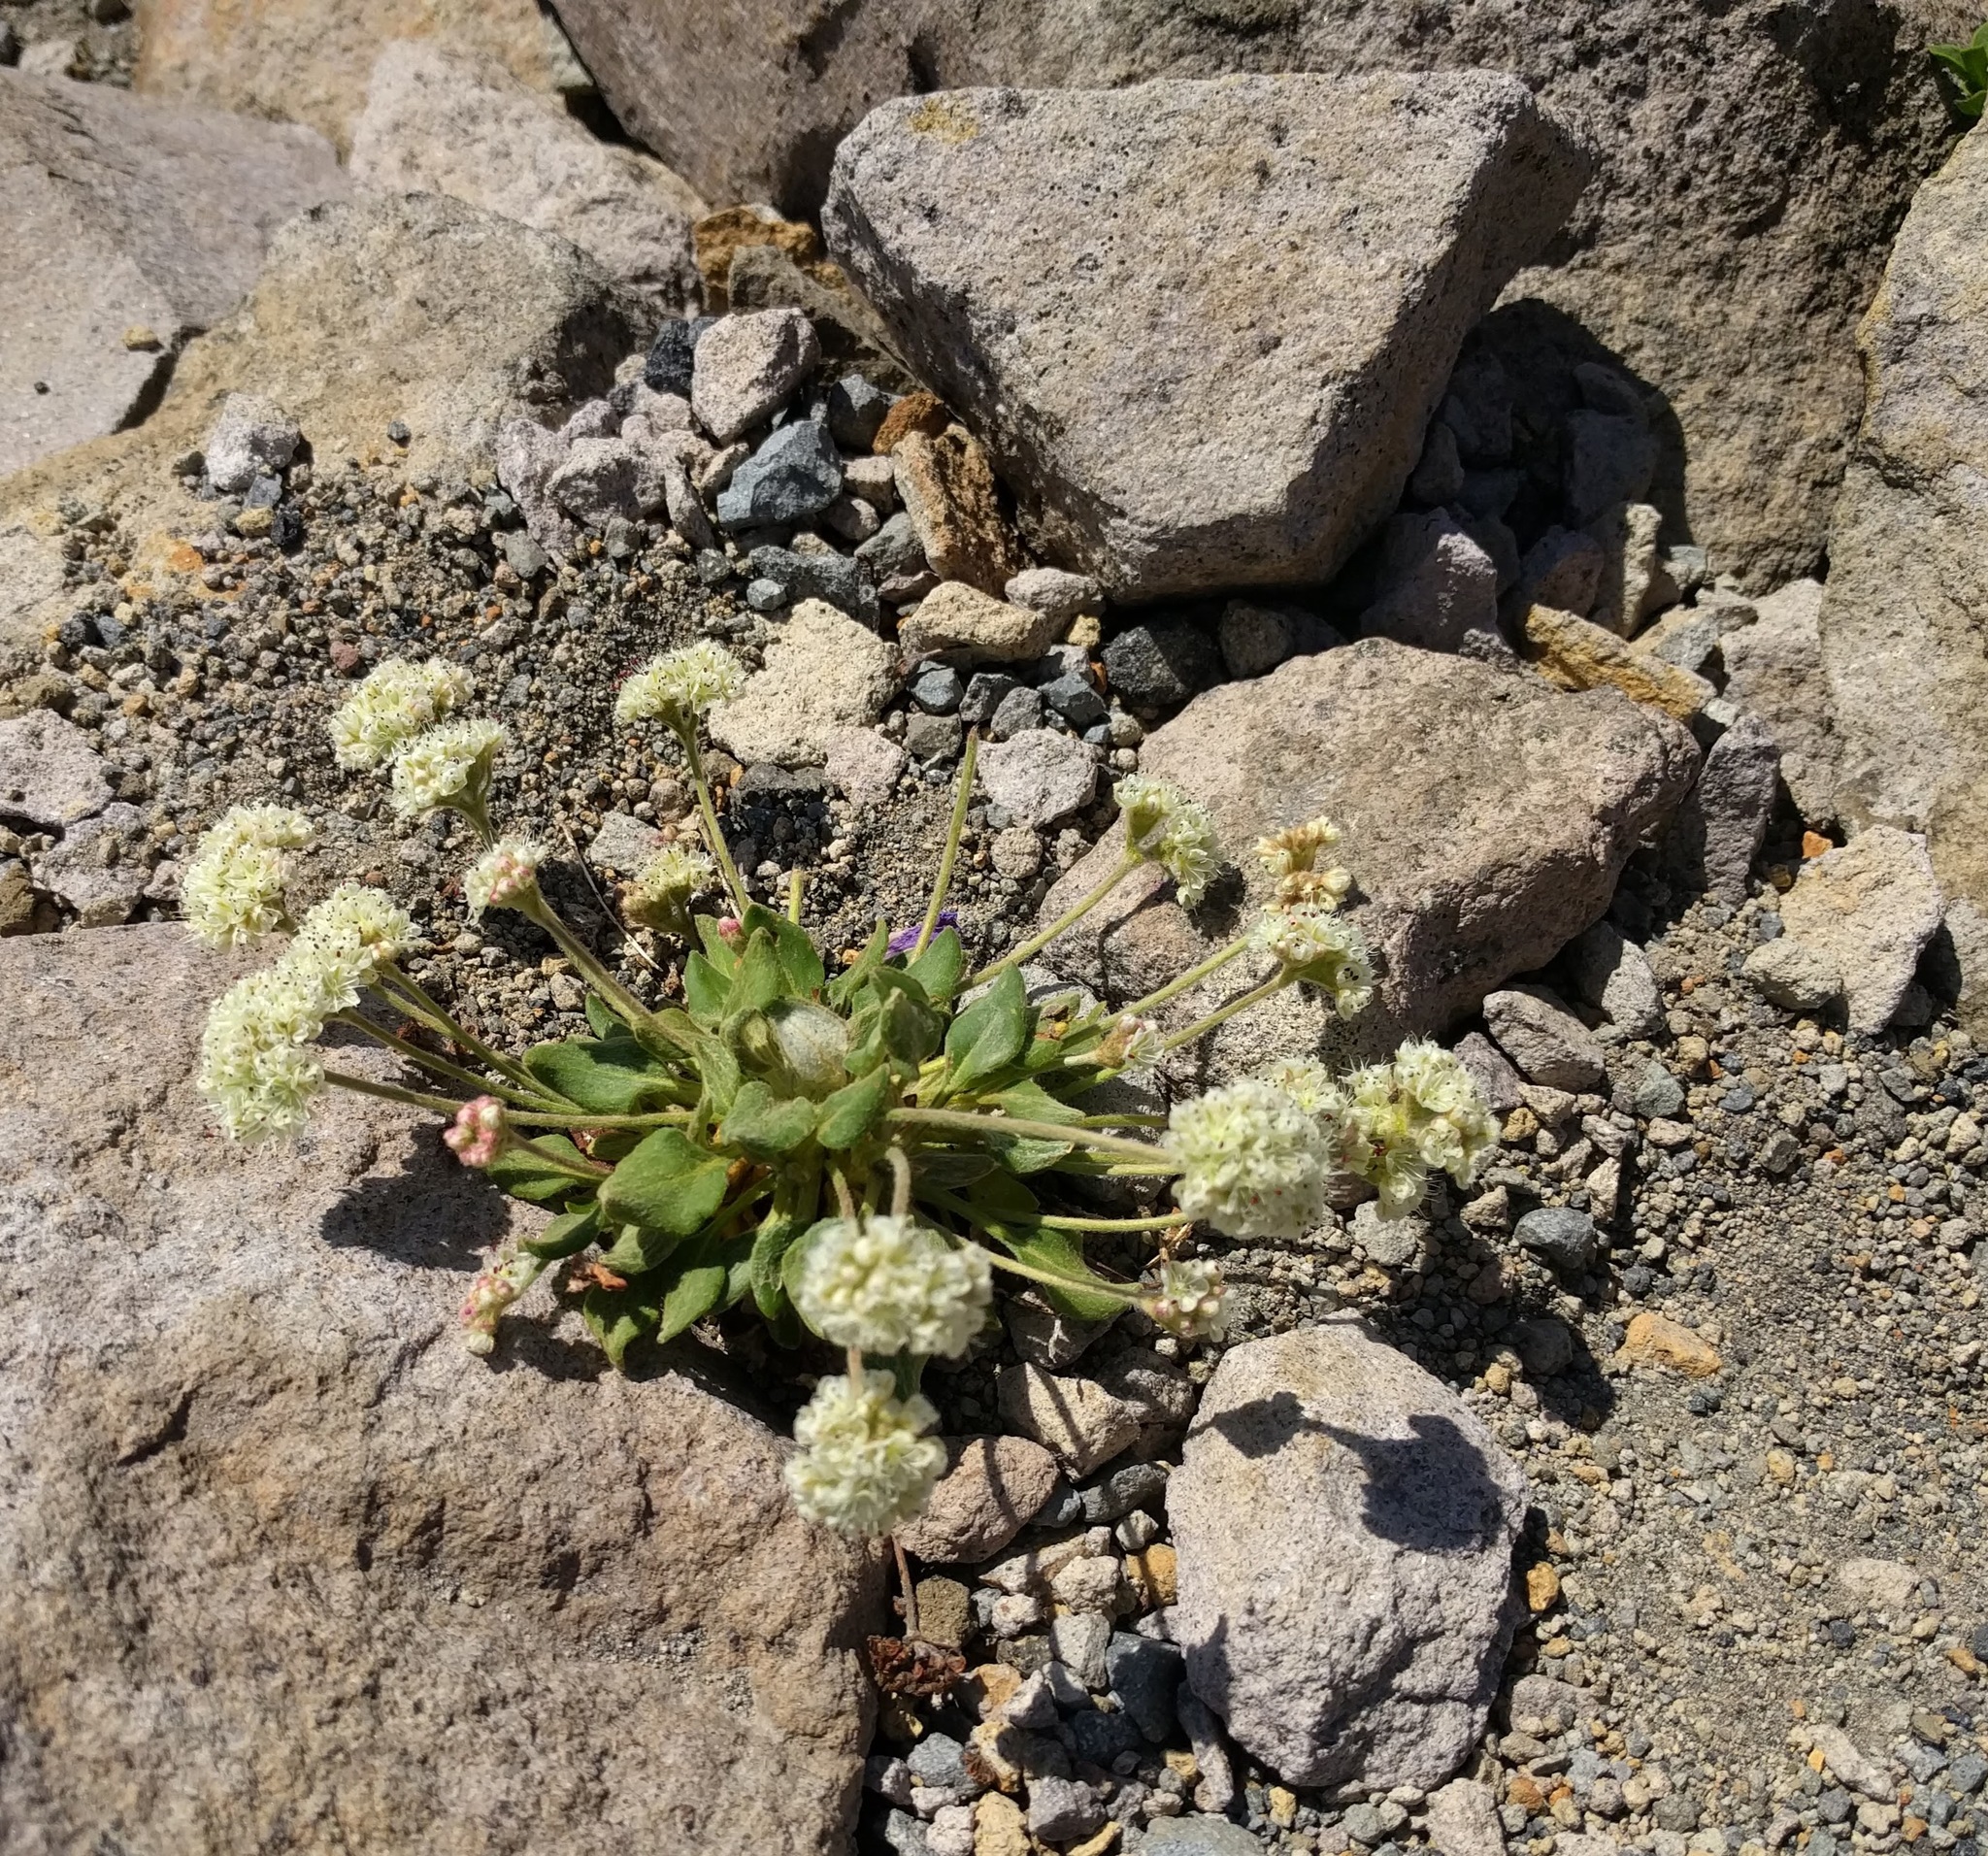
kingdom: Plantae
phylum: Tracheophyta
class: Magnoliopsida
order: Caryophyllales
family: Polygonaceae
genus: Eriogonum
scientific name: Eriogonum pyrolifolium
